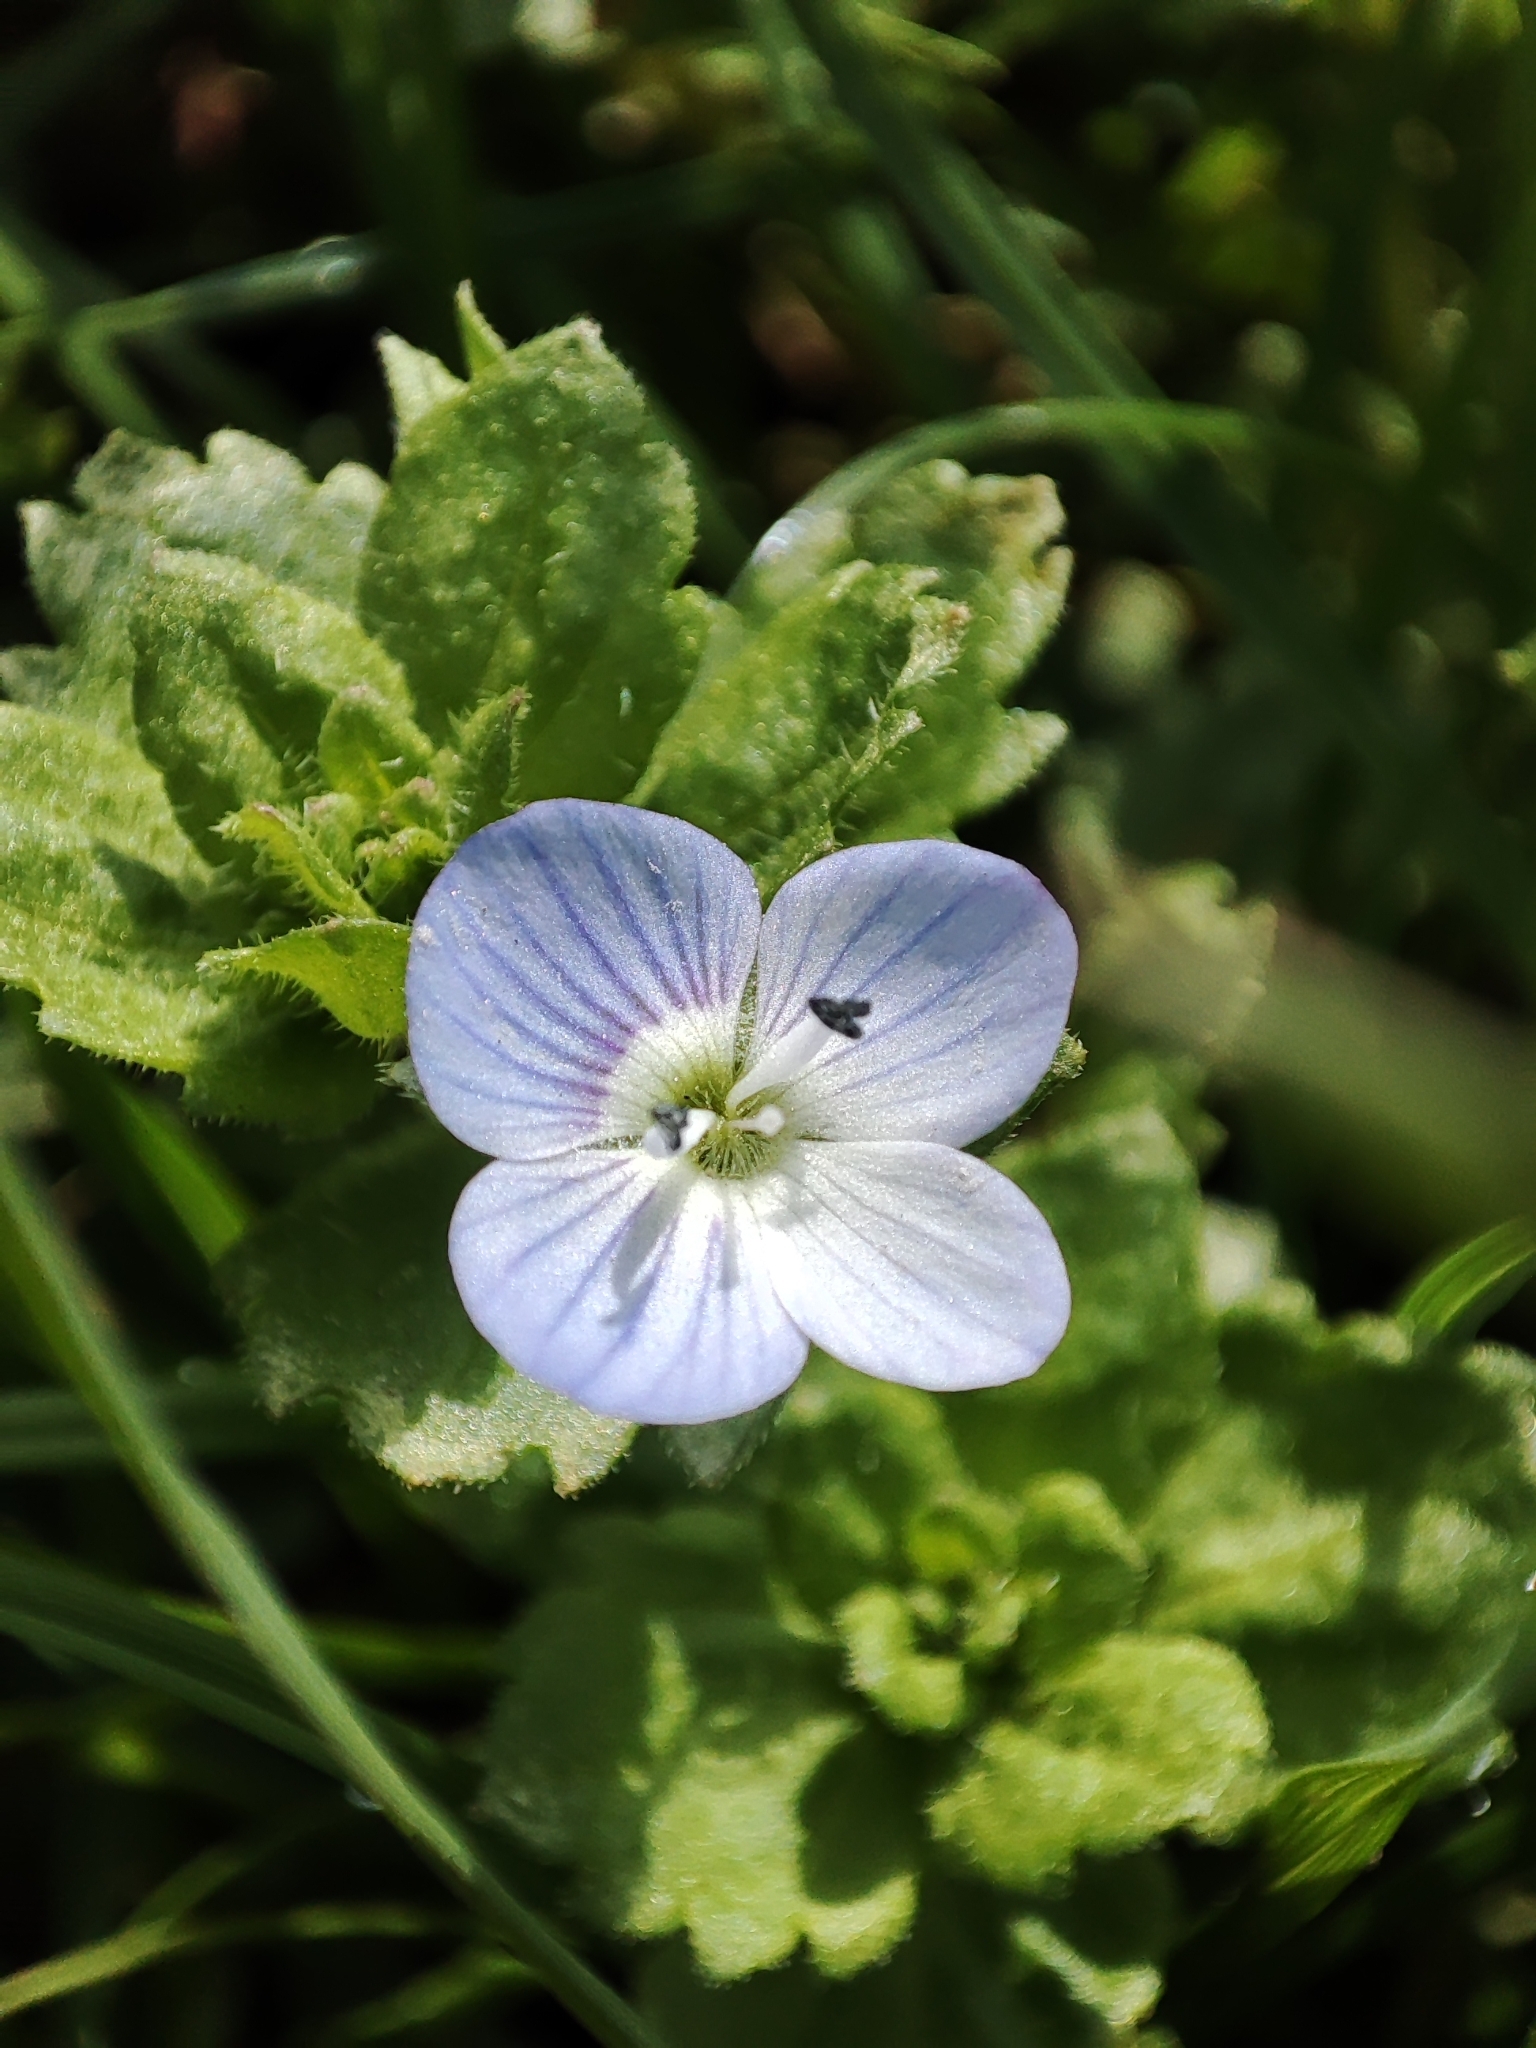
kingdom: Plantae
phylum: Tracheophyta
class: Magnoliopsida
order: Lamiales
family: Plantaginaceae
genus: Veronica
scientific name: Veronica persica
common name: Common field-speedwell
